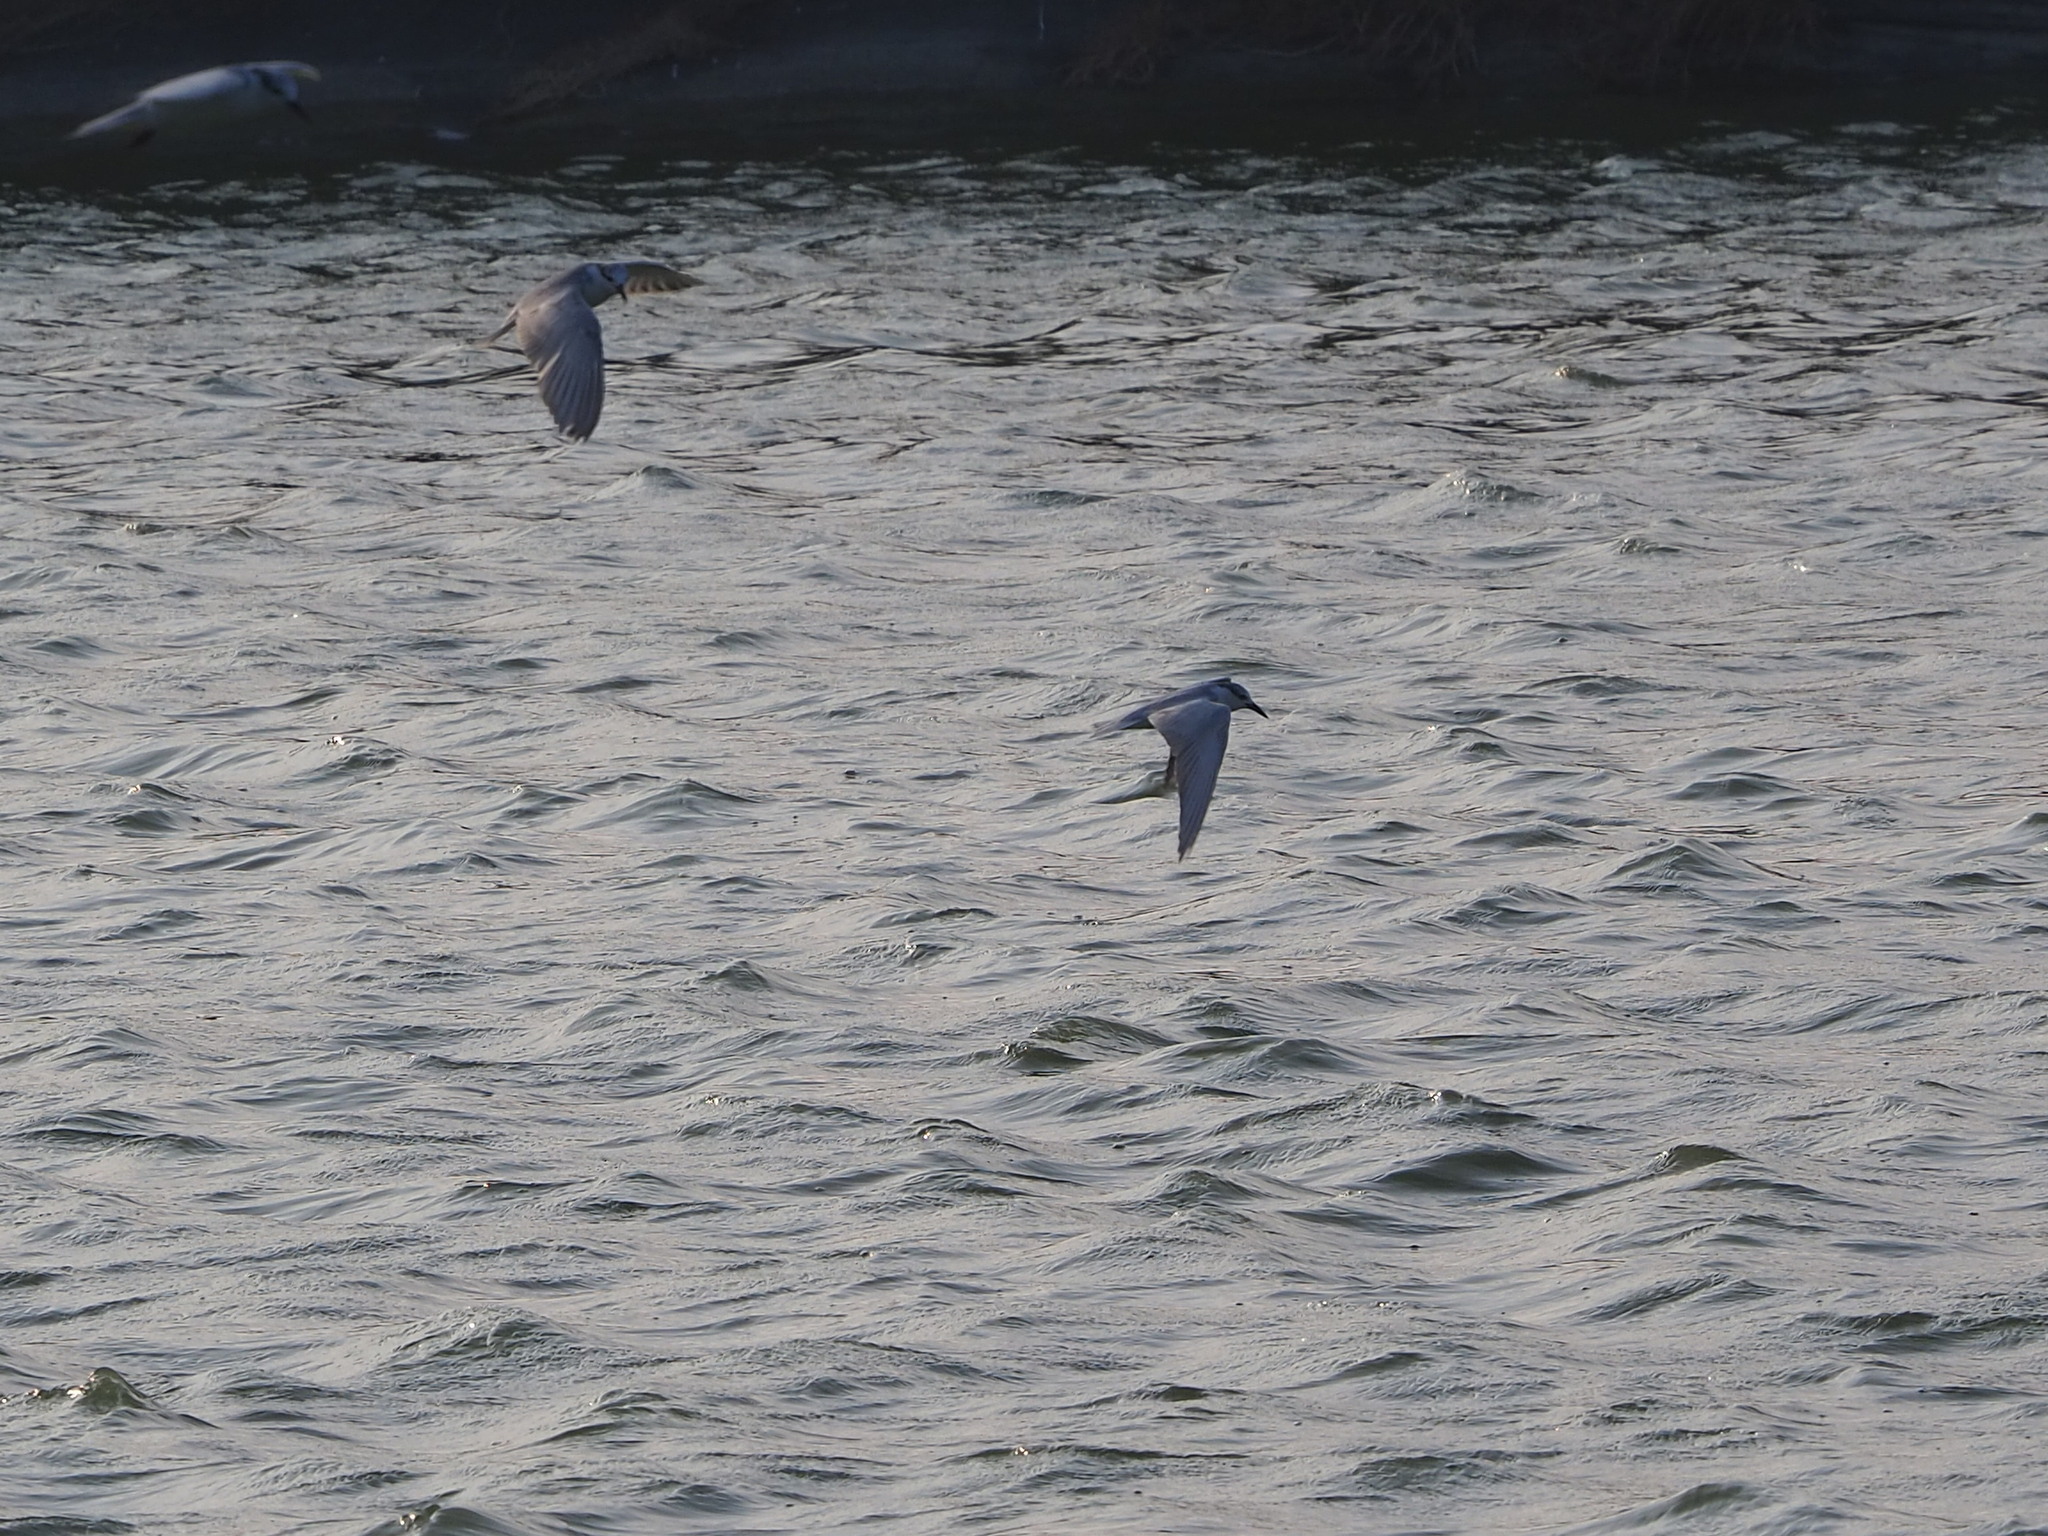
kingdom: Animalia
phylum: Chordata
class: Aves
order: Charadriiformes
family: Laridae
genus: Chlidonias
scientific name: Chlidonias hybrida
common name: Whiskered tern
